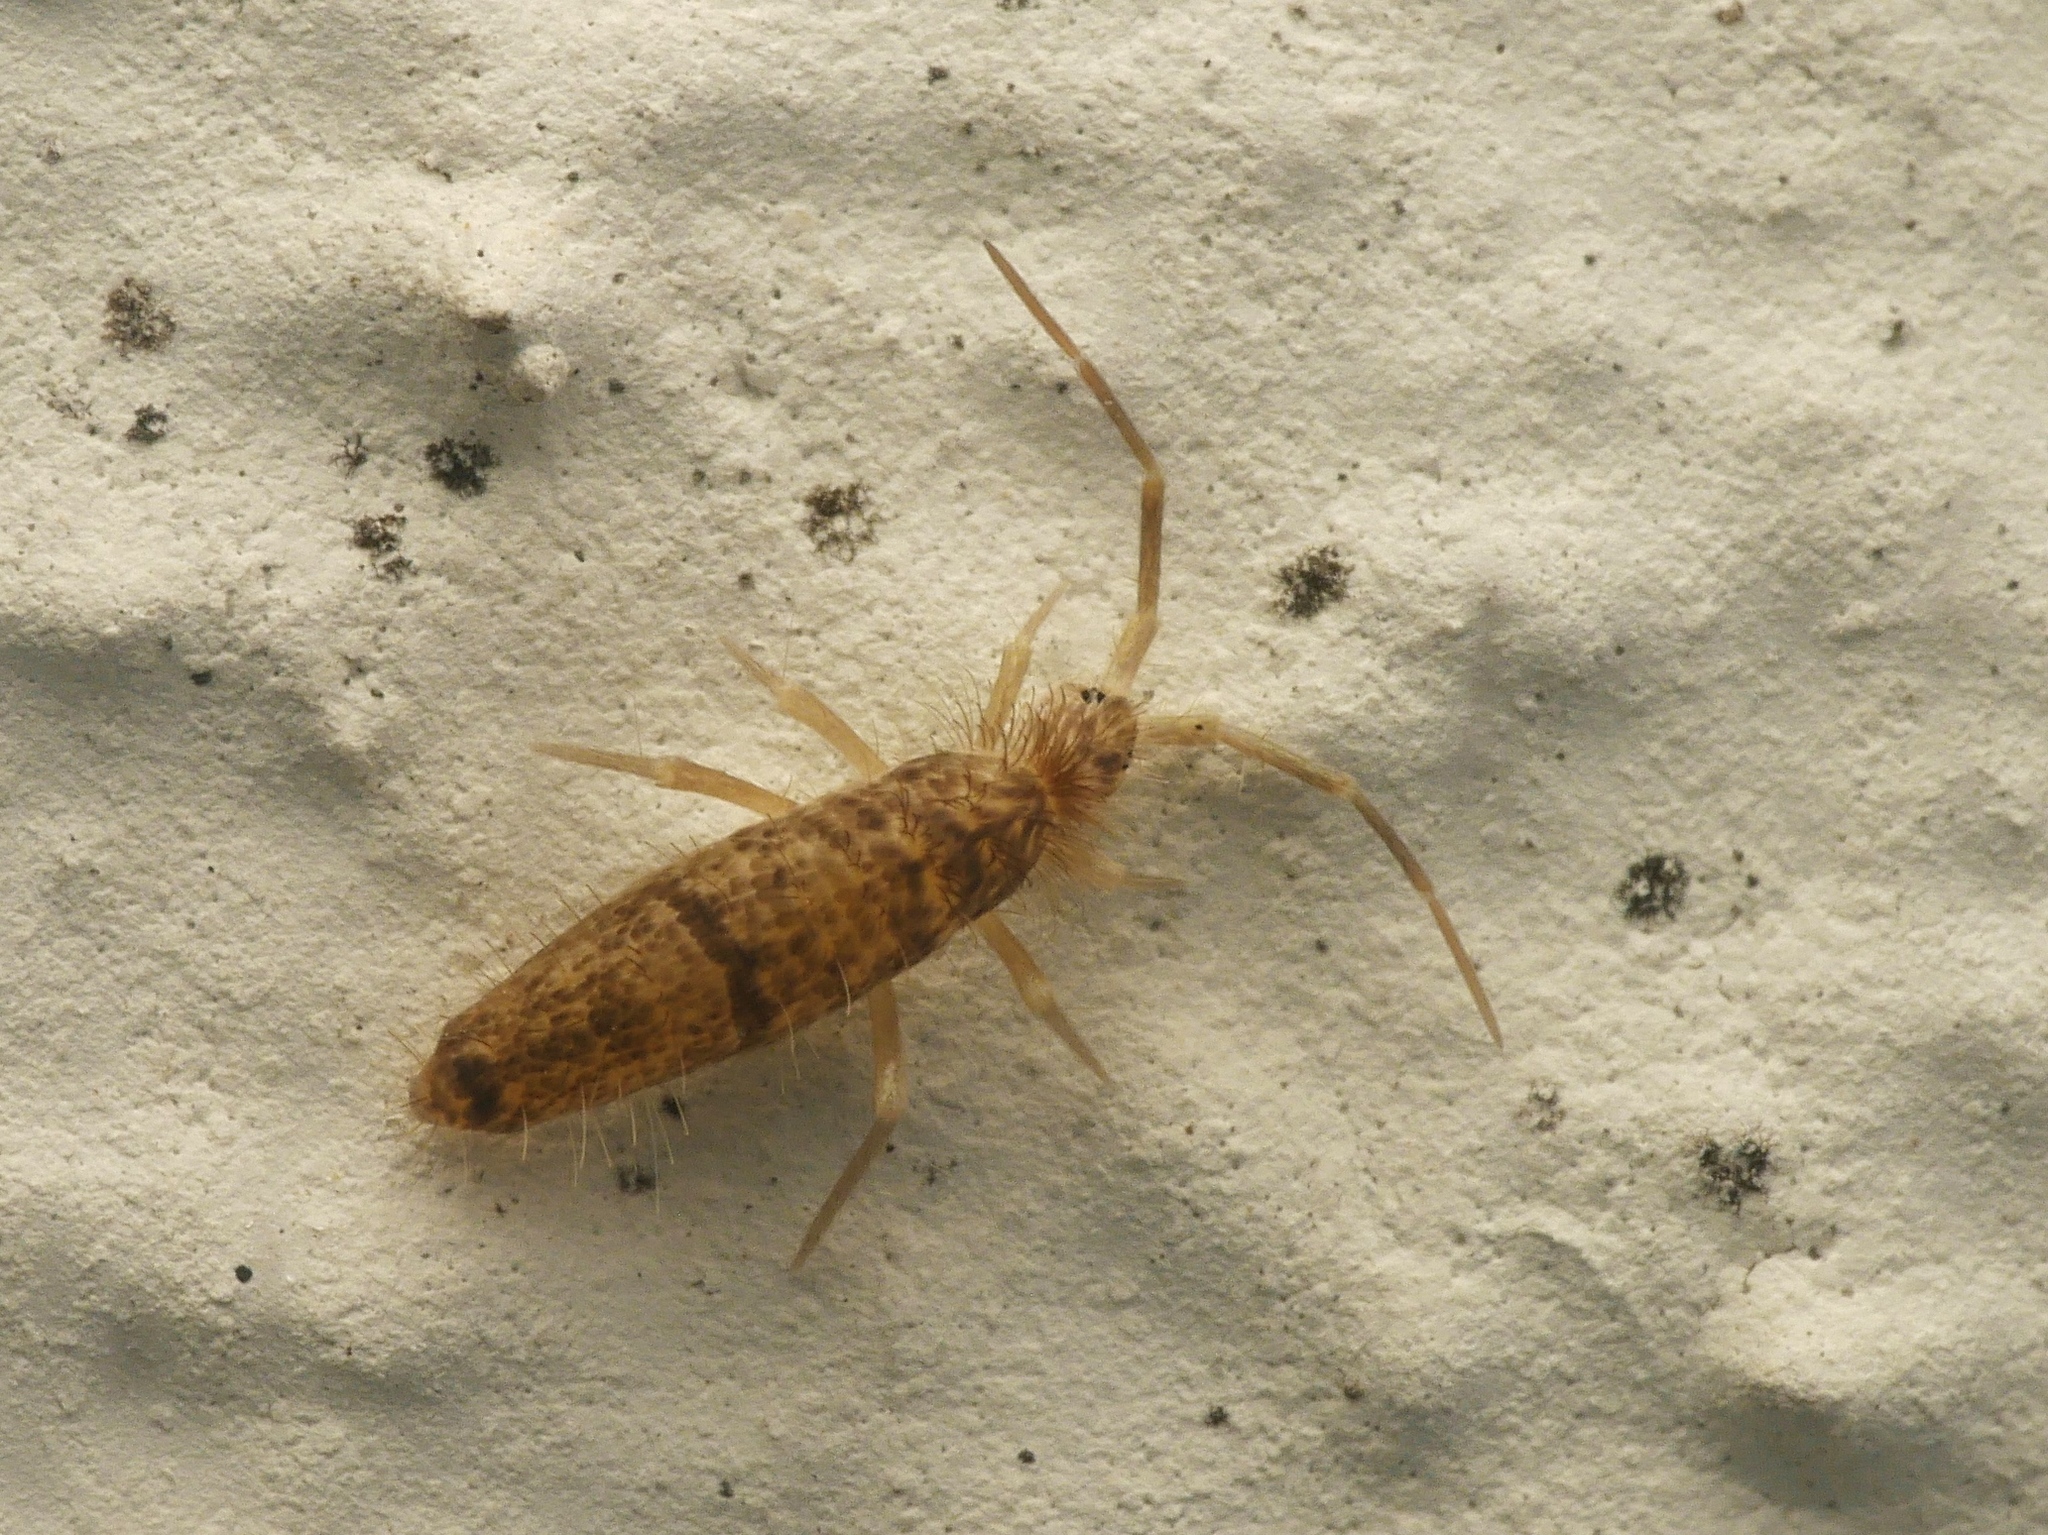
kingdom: Animalia
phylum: Arthropoda
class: Collembola
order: Entomobryomorpha
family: Entomobryidae
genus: Seira
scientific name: Seira musarum
